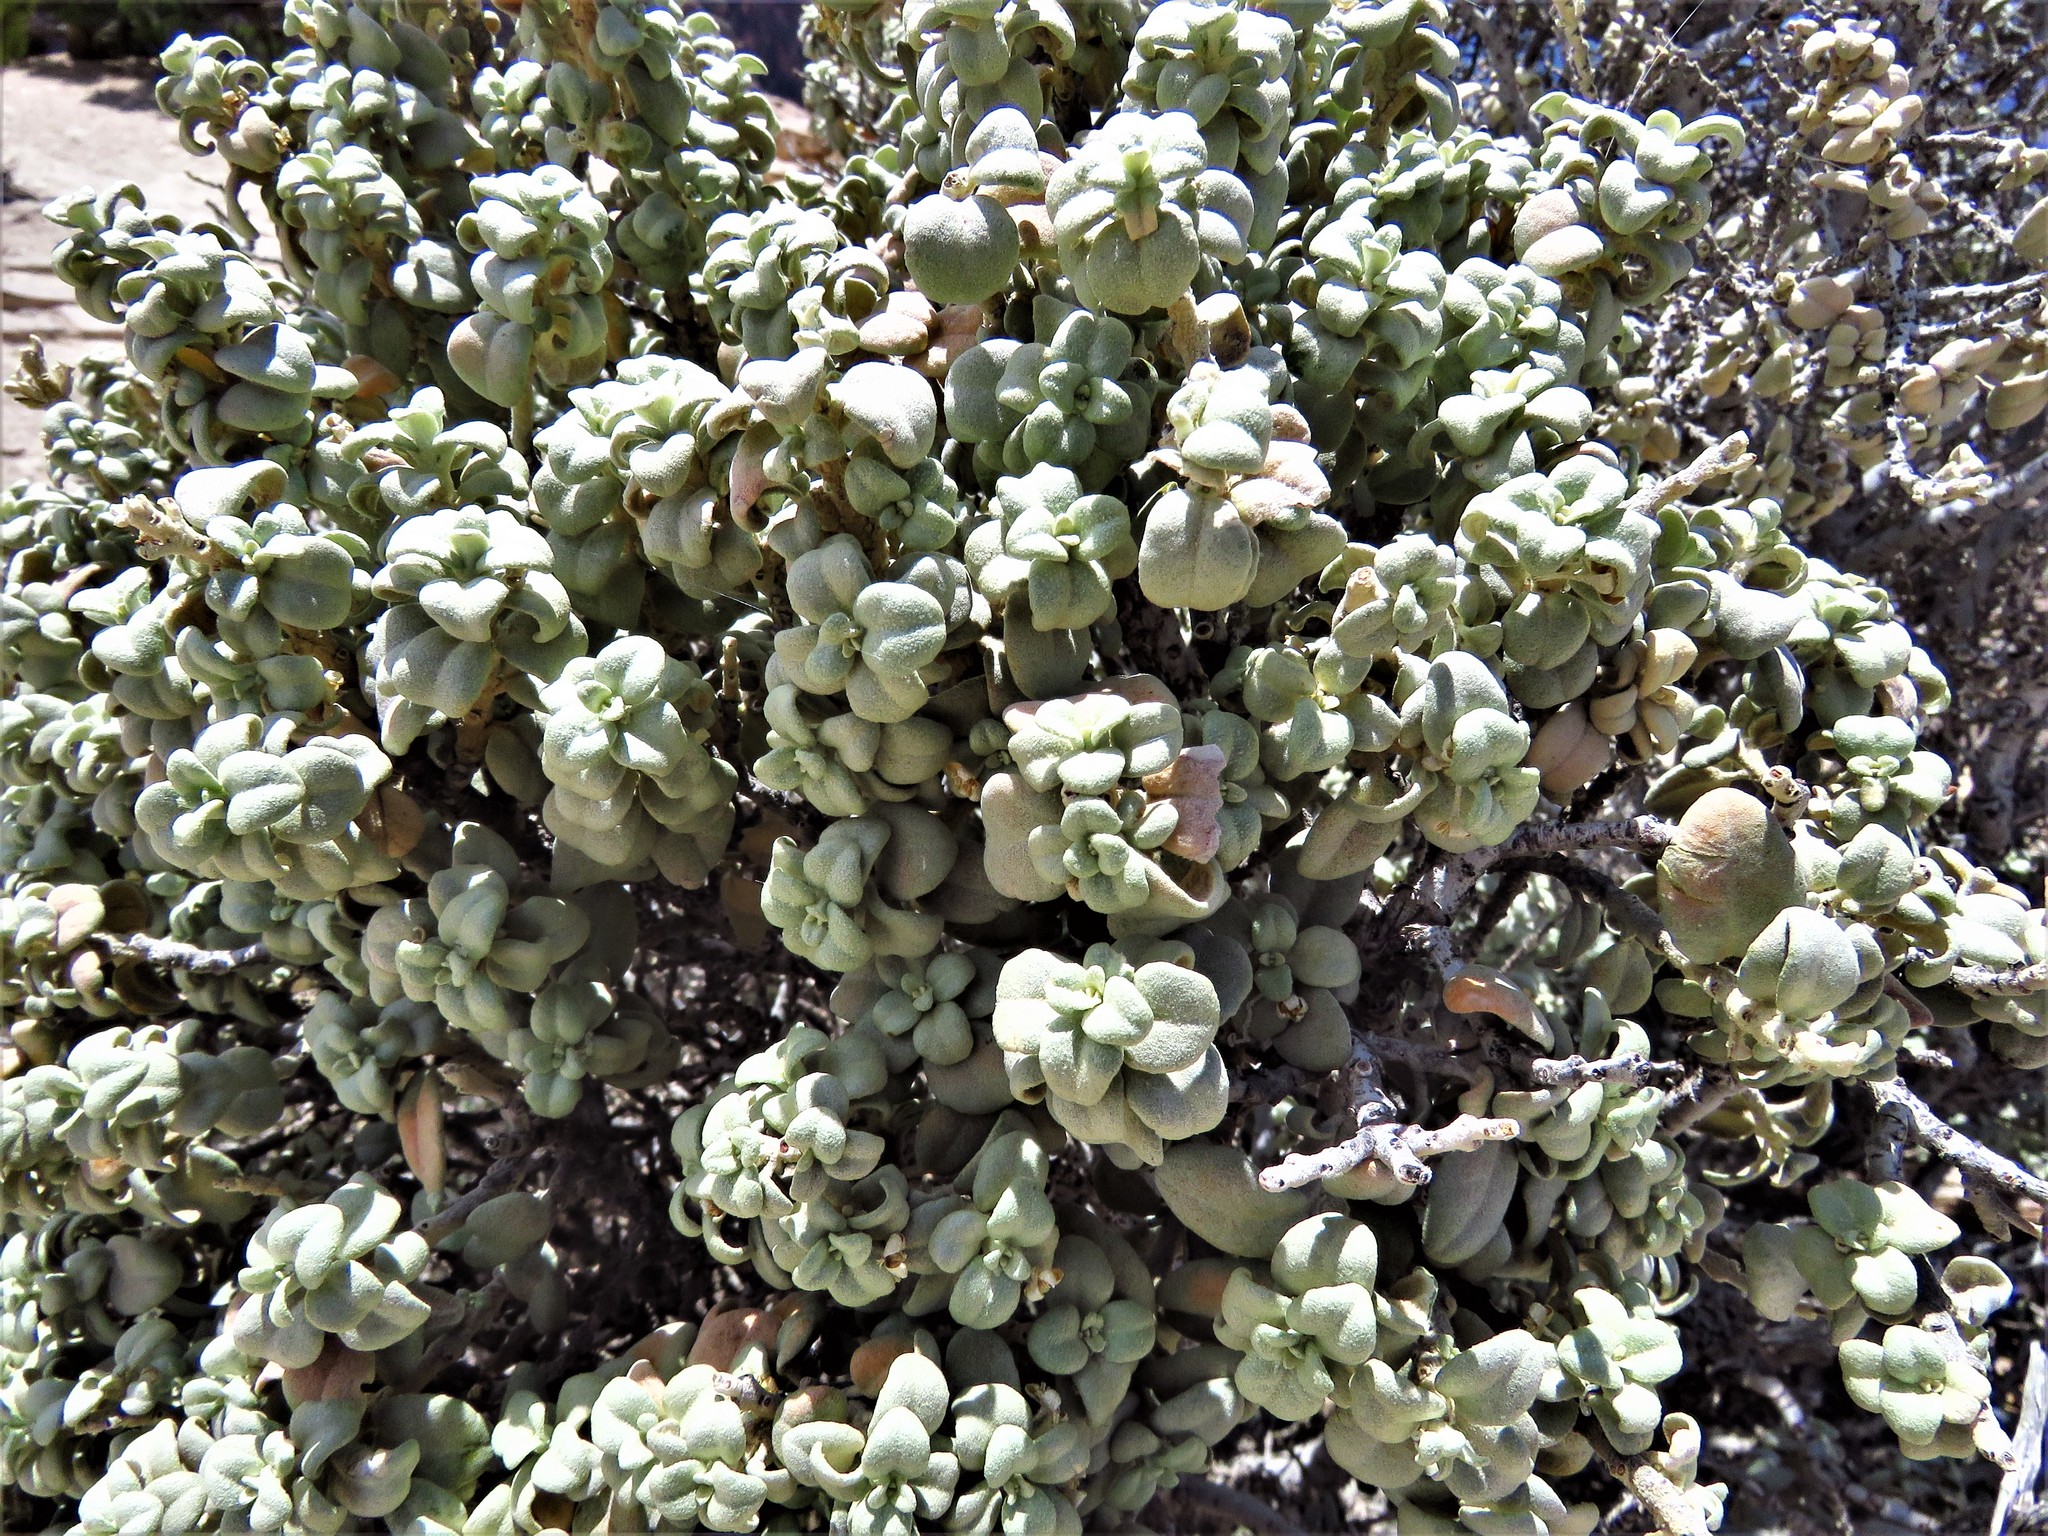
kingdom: Plantae
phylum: Tracheophyta
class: Magnoliopsida
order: Rosales
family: Elaeagnaceae
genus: Shepherdia
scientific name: Shepherdia rotundifolia
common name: Silverscale
